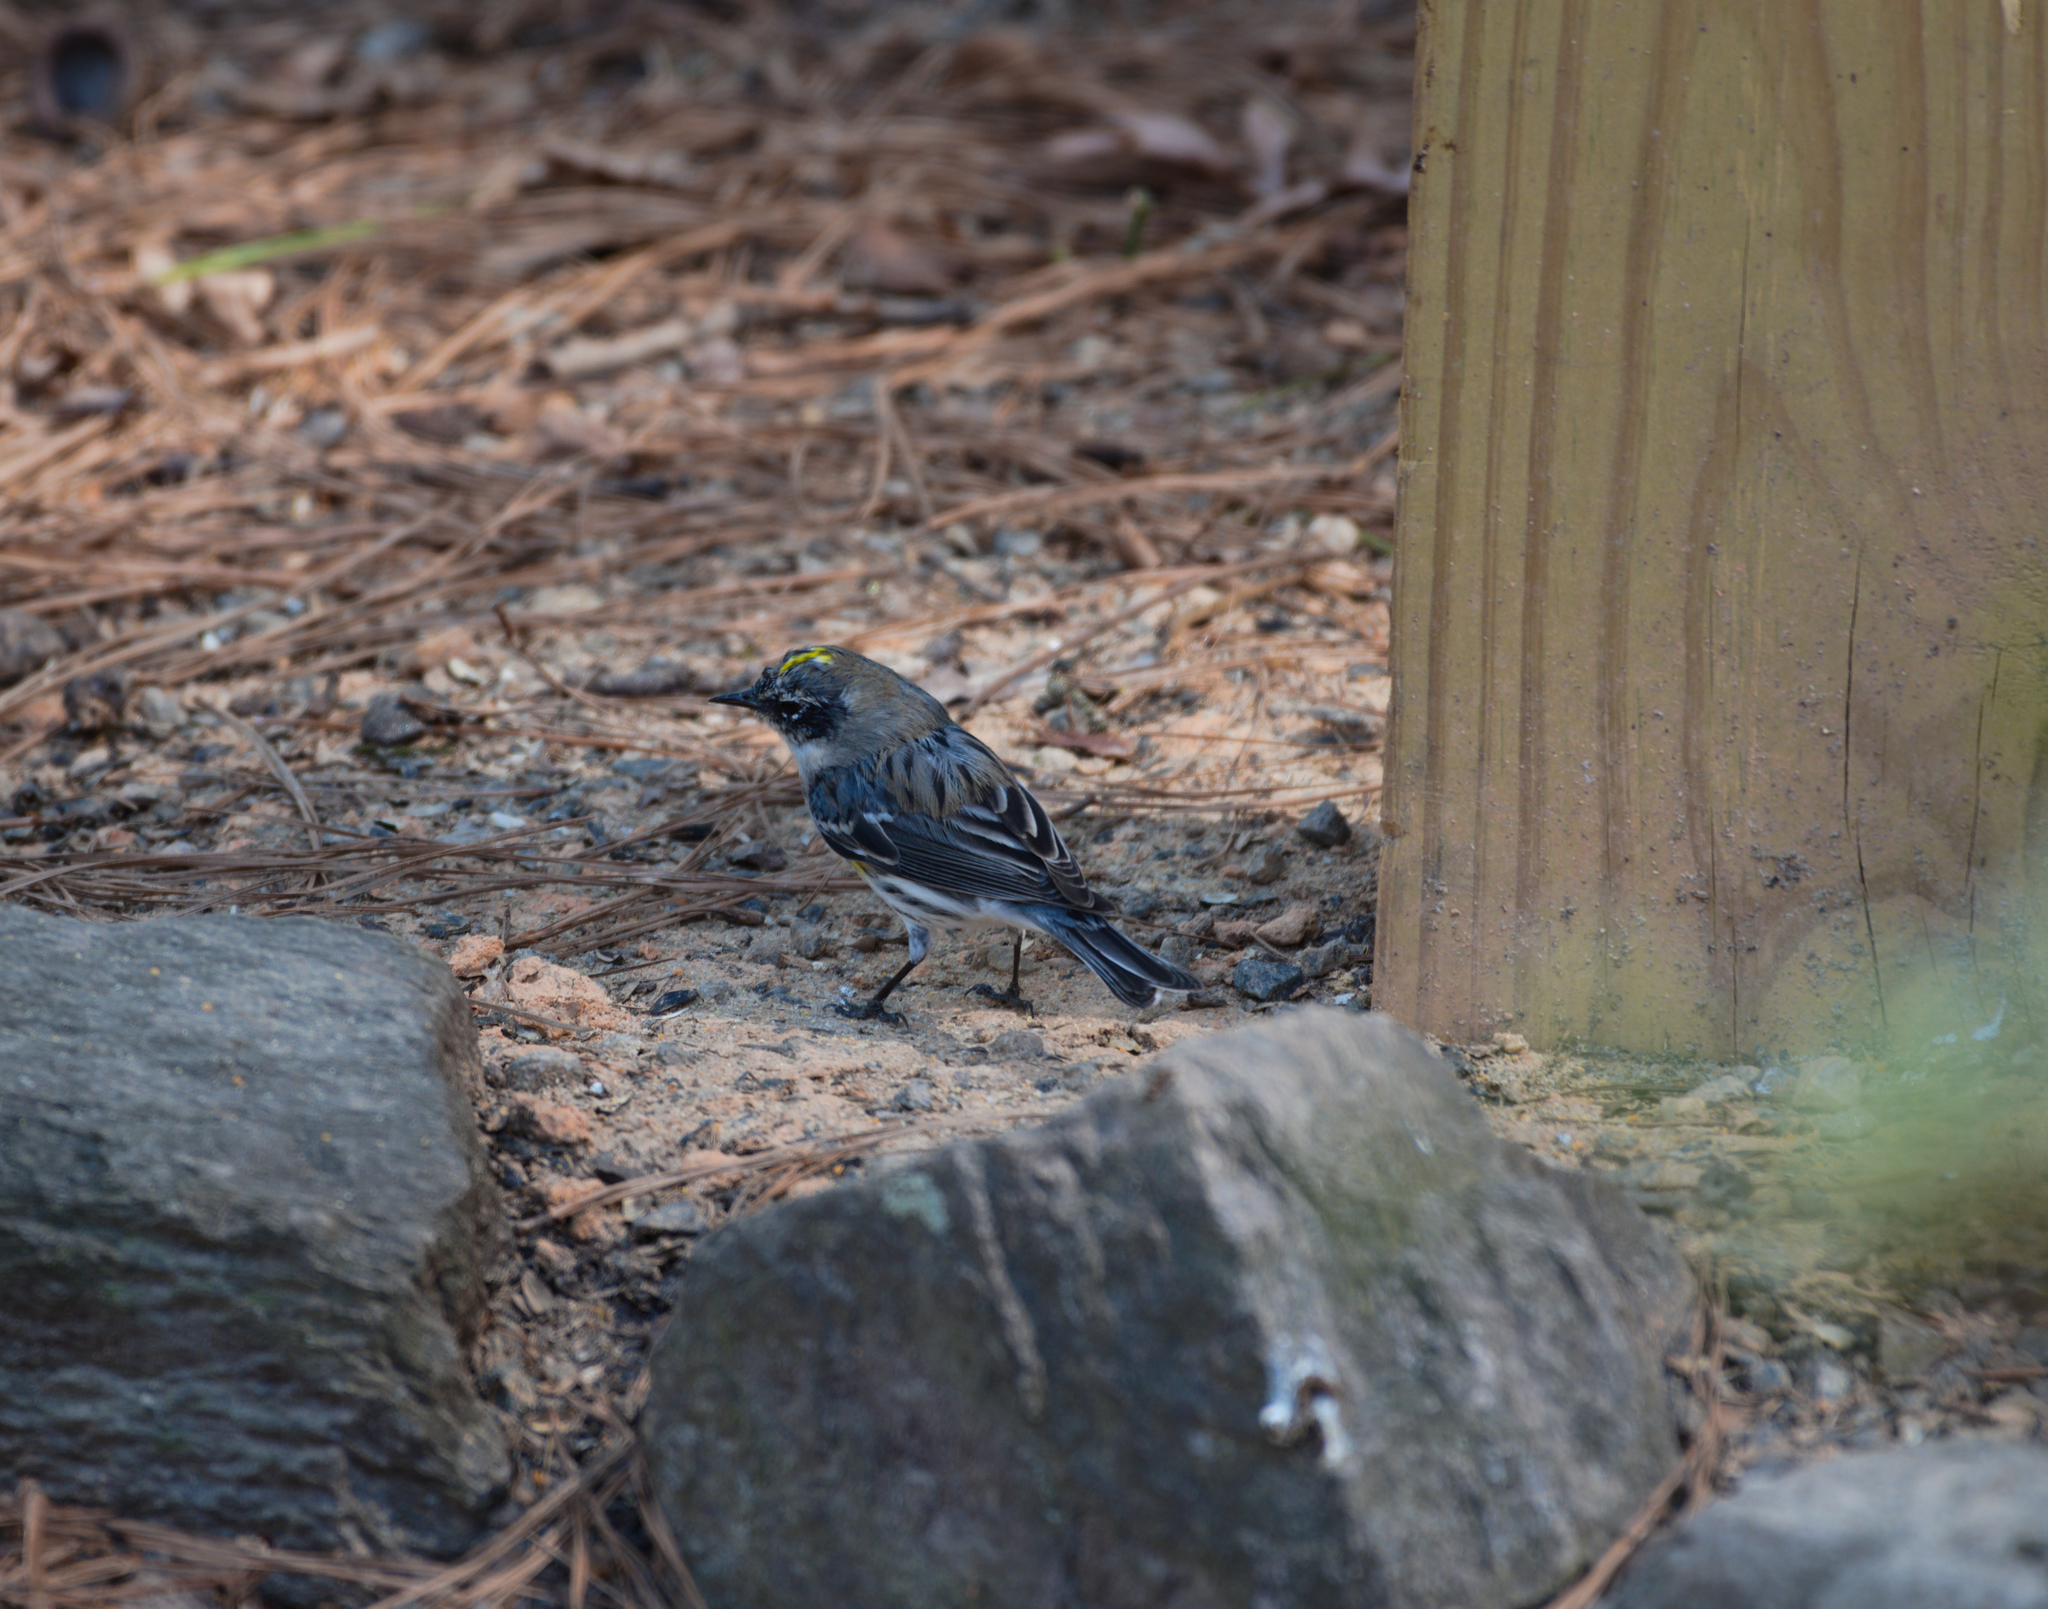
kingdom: Animalia
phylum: Chordata
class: Aves
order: Passeriformes
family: Parulidae
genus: Setophaga
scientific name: Setophaga coronata
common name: Myrtle warbler
